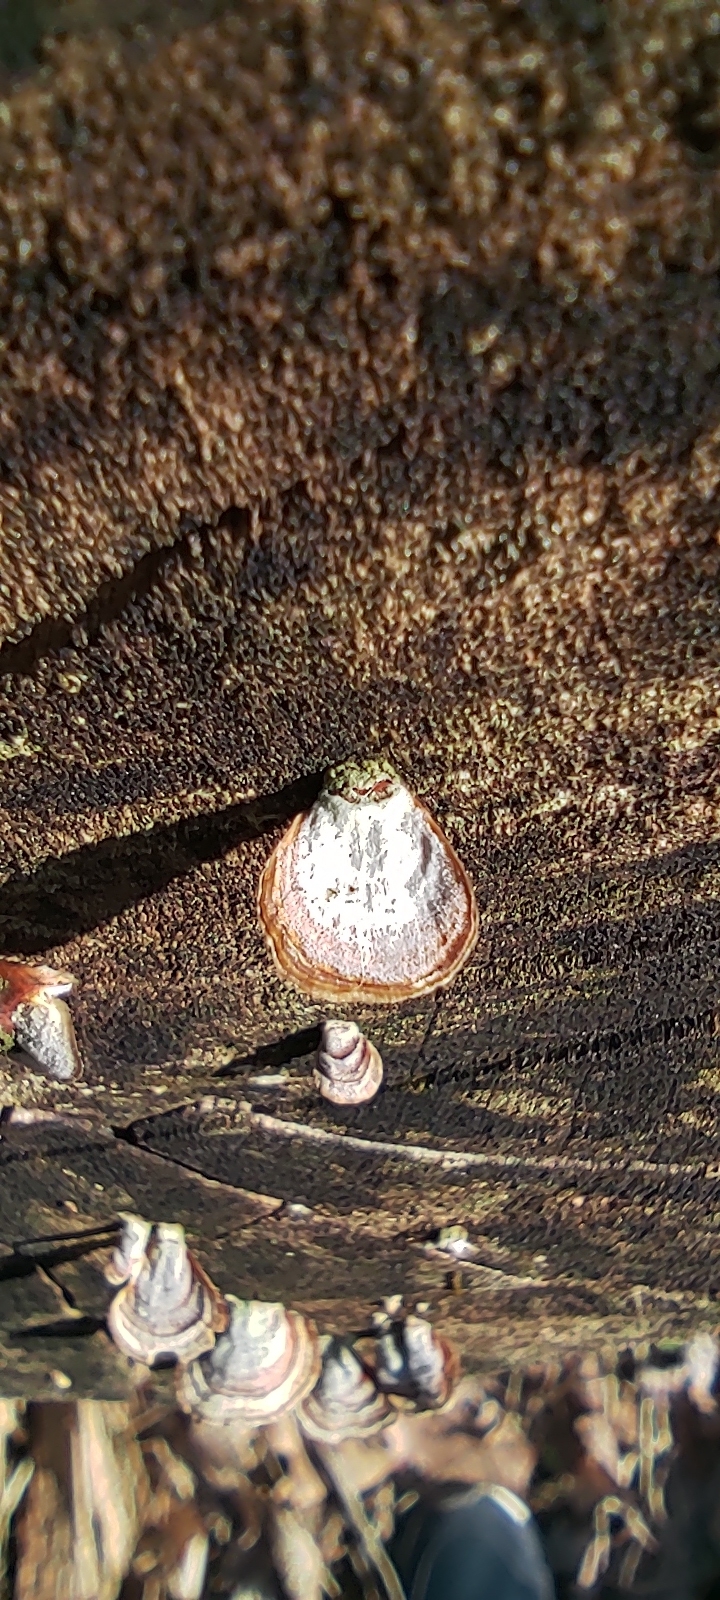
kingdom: Fungi
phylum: Basidiomycota
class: Agaricomycetes
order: Russulales
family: Stereaceae
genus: Stereum
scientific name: Stereum lobatum
